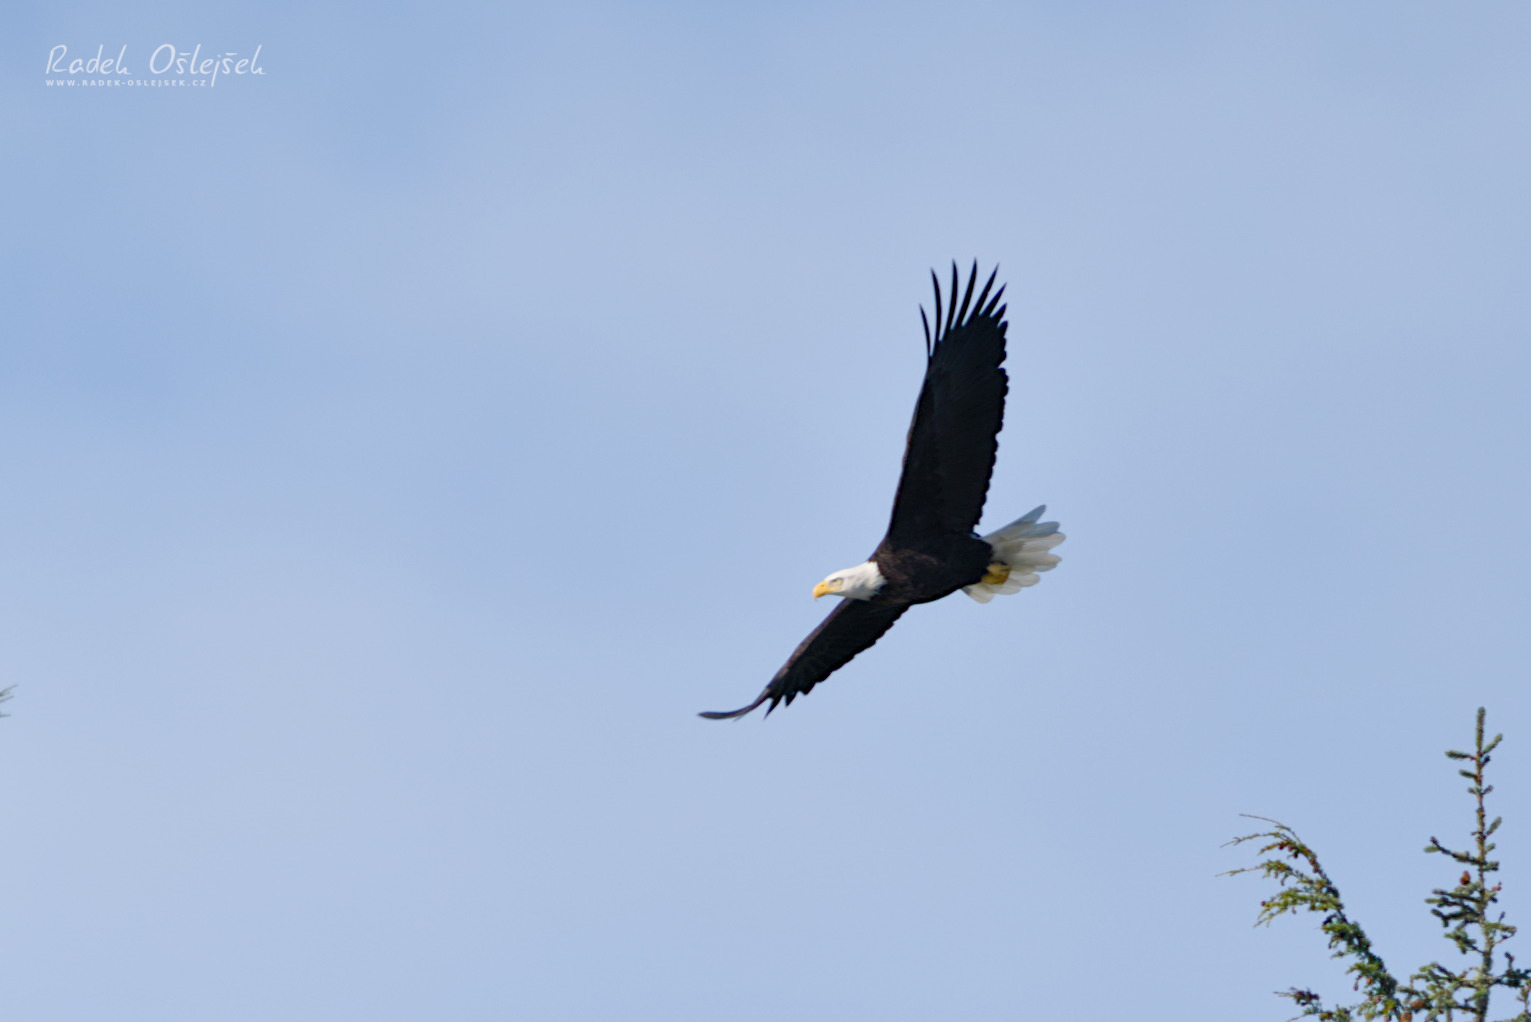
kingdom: Animalia
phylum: Chordata
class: Aves
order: Accipitriformes
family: Accipitridae
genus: Haliaeetus
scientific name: Haliaeetus leucocephalus
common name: Bald eagle
